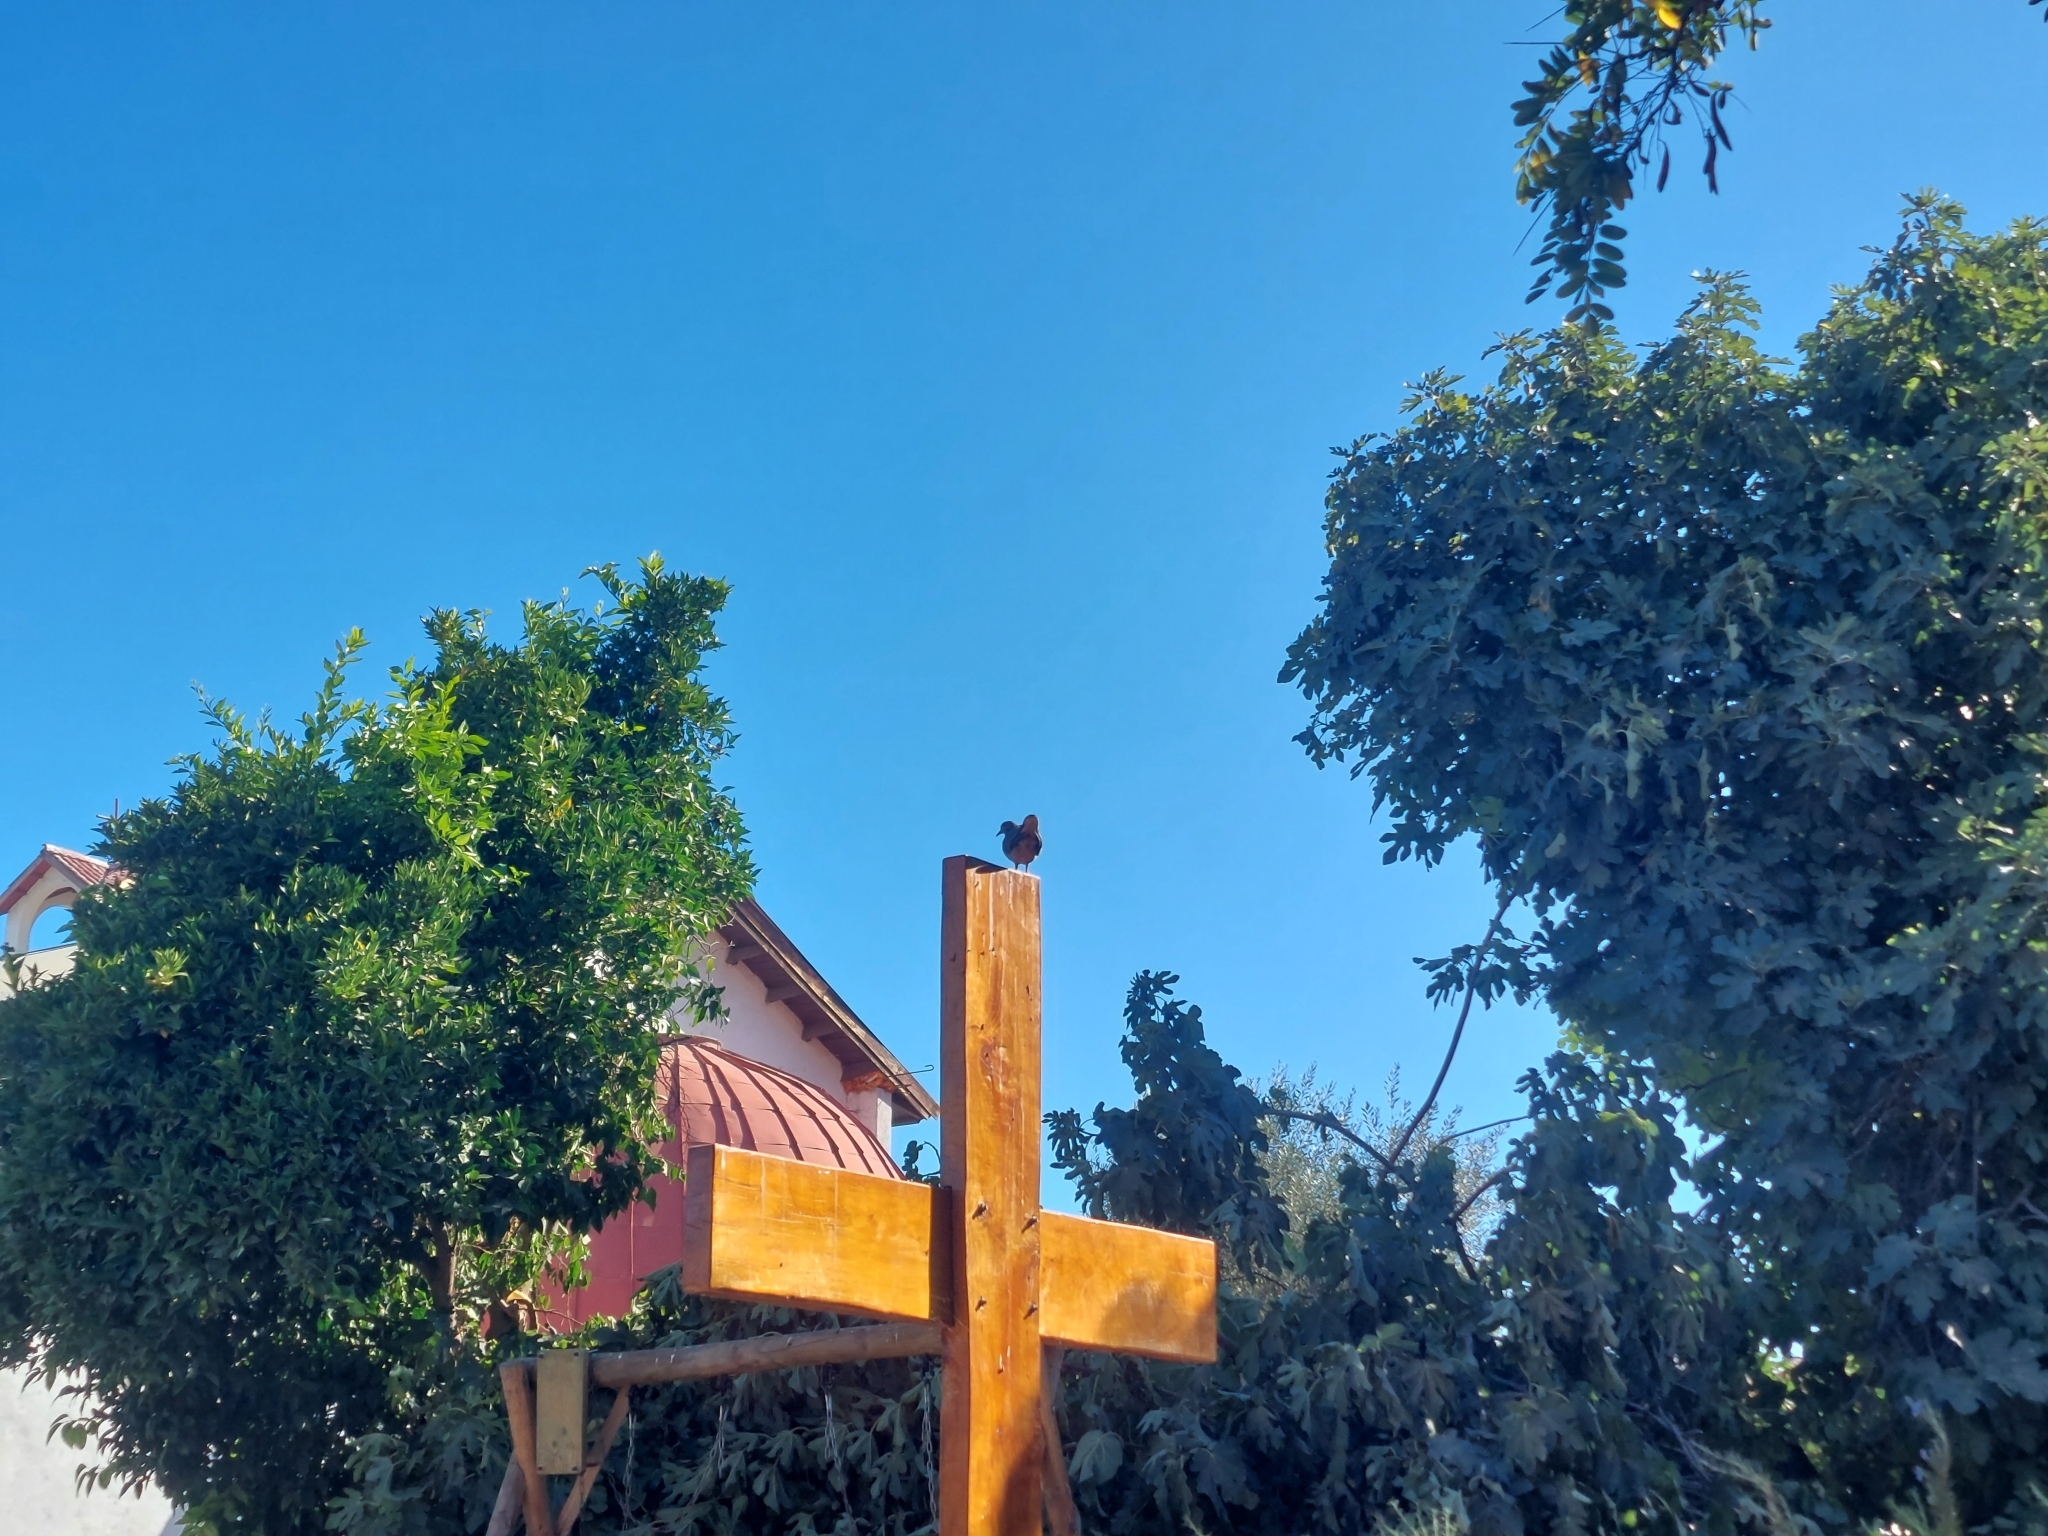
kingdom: Animalia
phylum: Chordata
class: Aves
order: Columbiformes
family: Columbidae
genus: Zenaida
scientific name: Zenaida auriculata
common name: Eared dove
